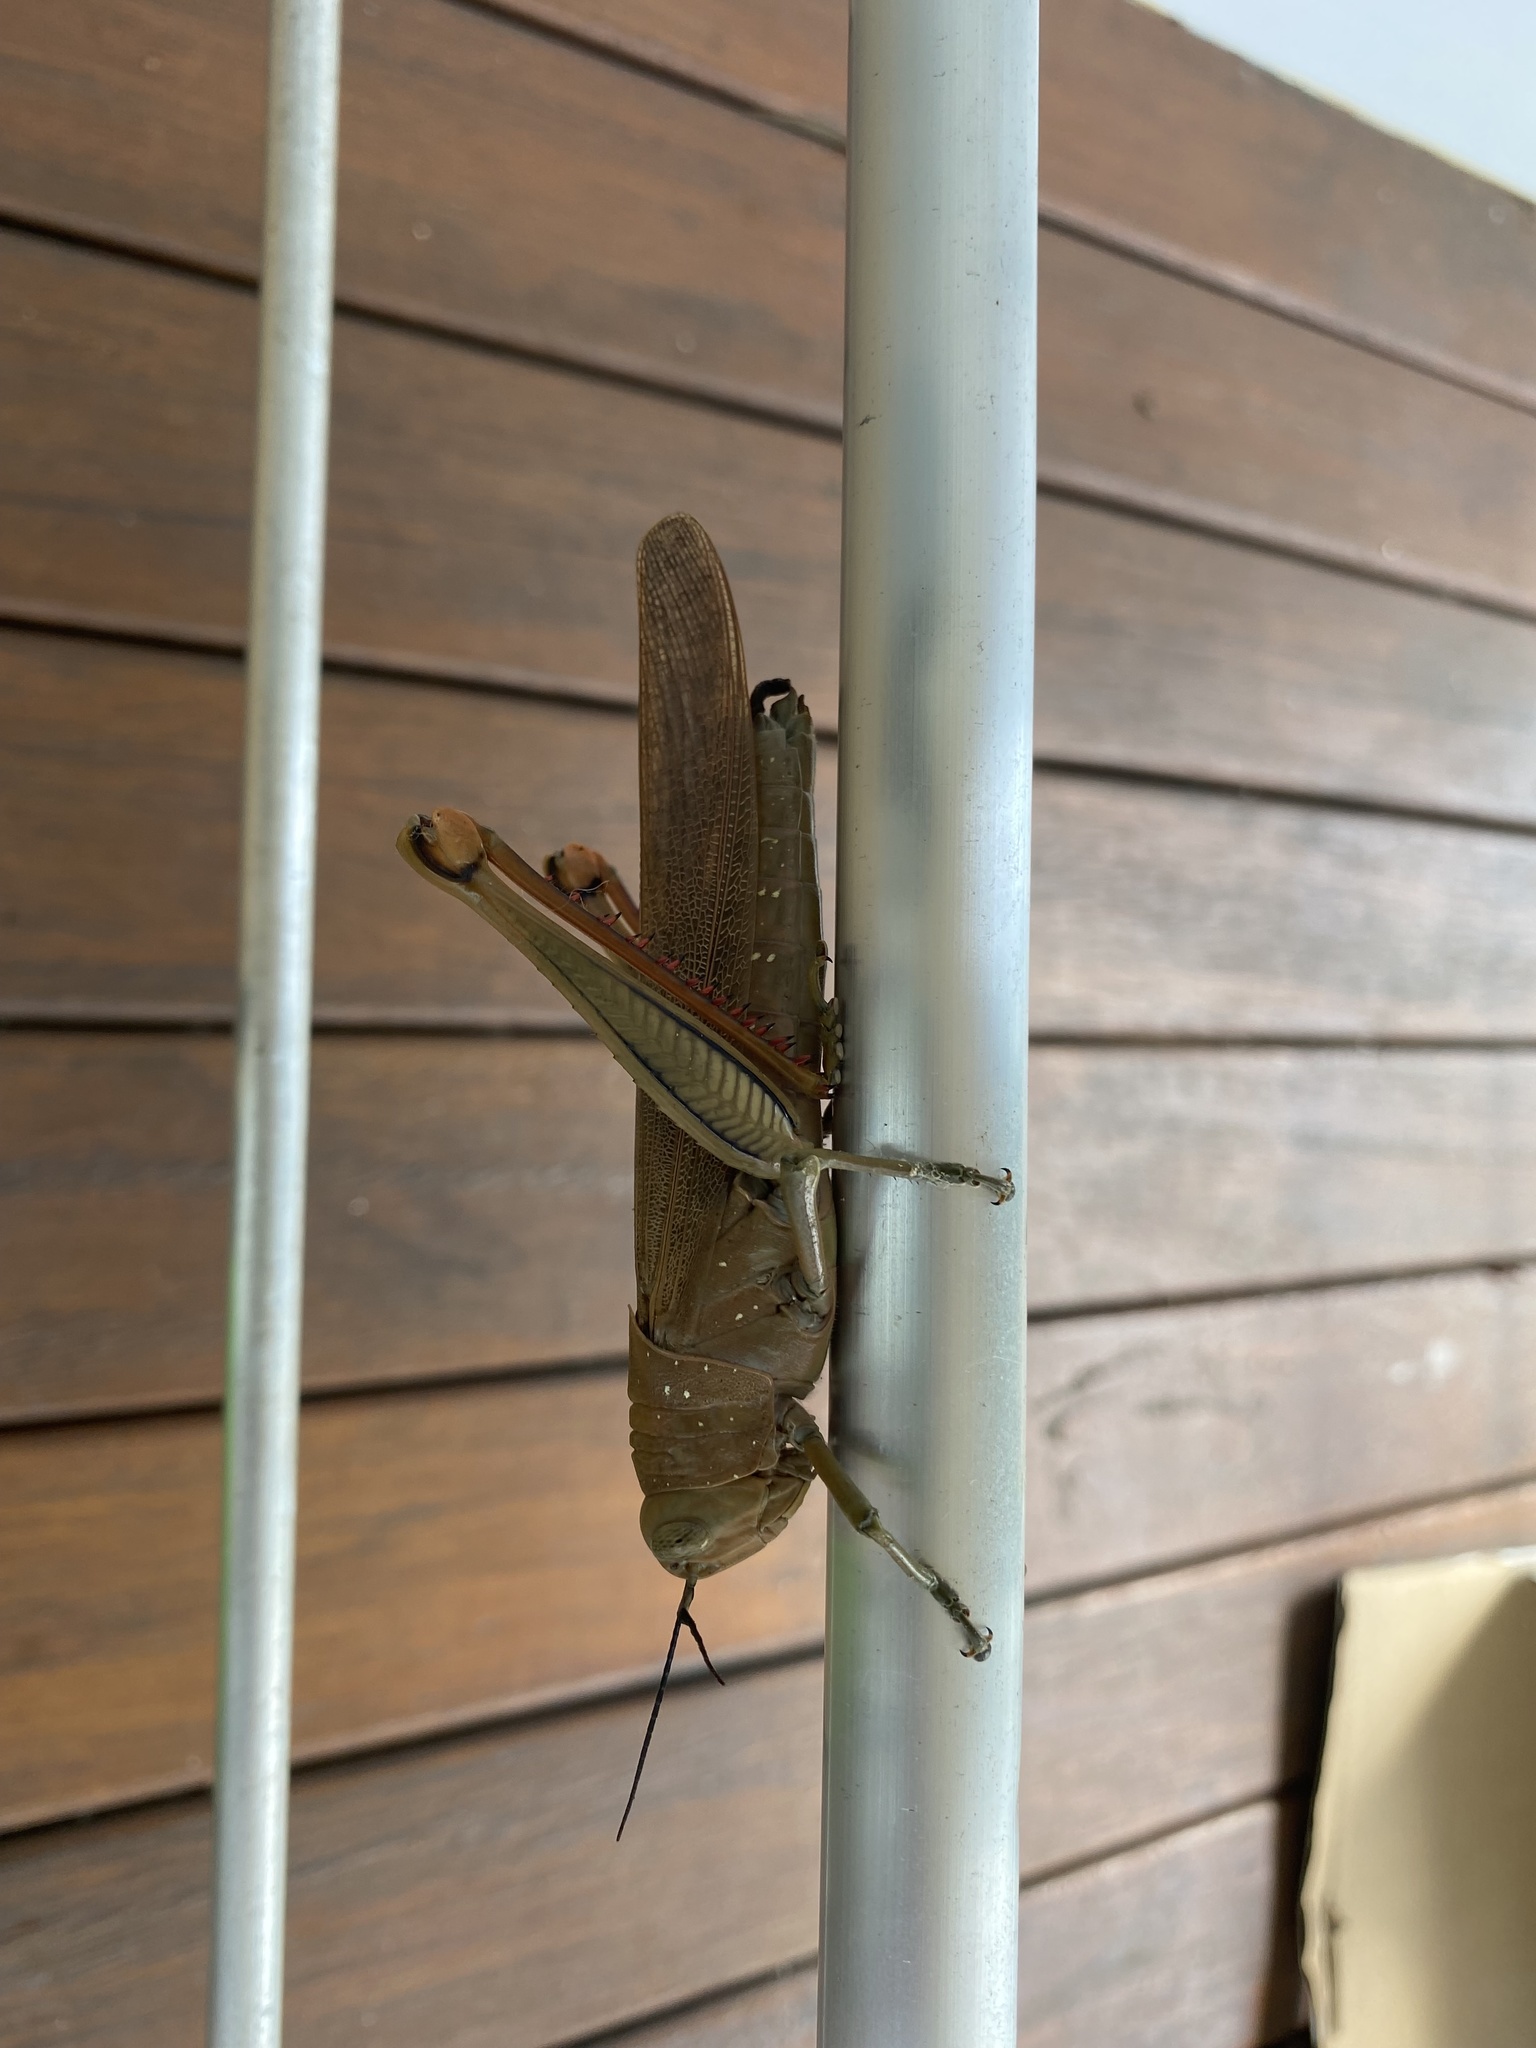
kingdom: Animalia
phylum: Arthropoda
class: Insecta
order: Orthoptera
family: Acrididae
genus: Valanga
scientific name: Valanga irregularis
